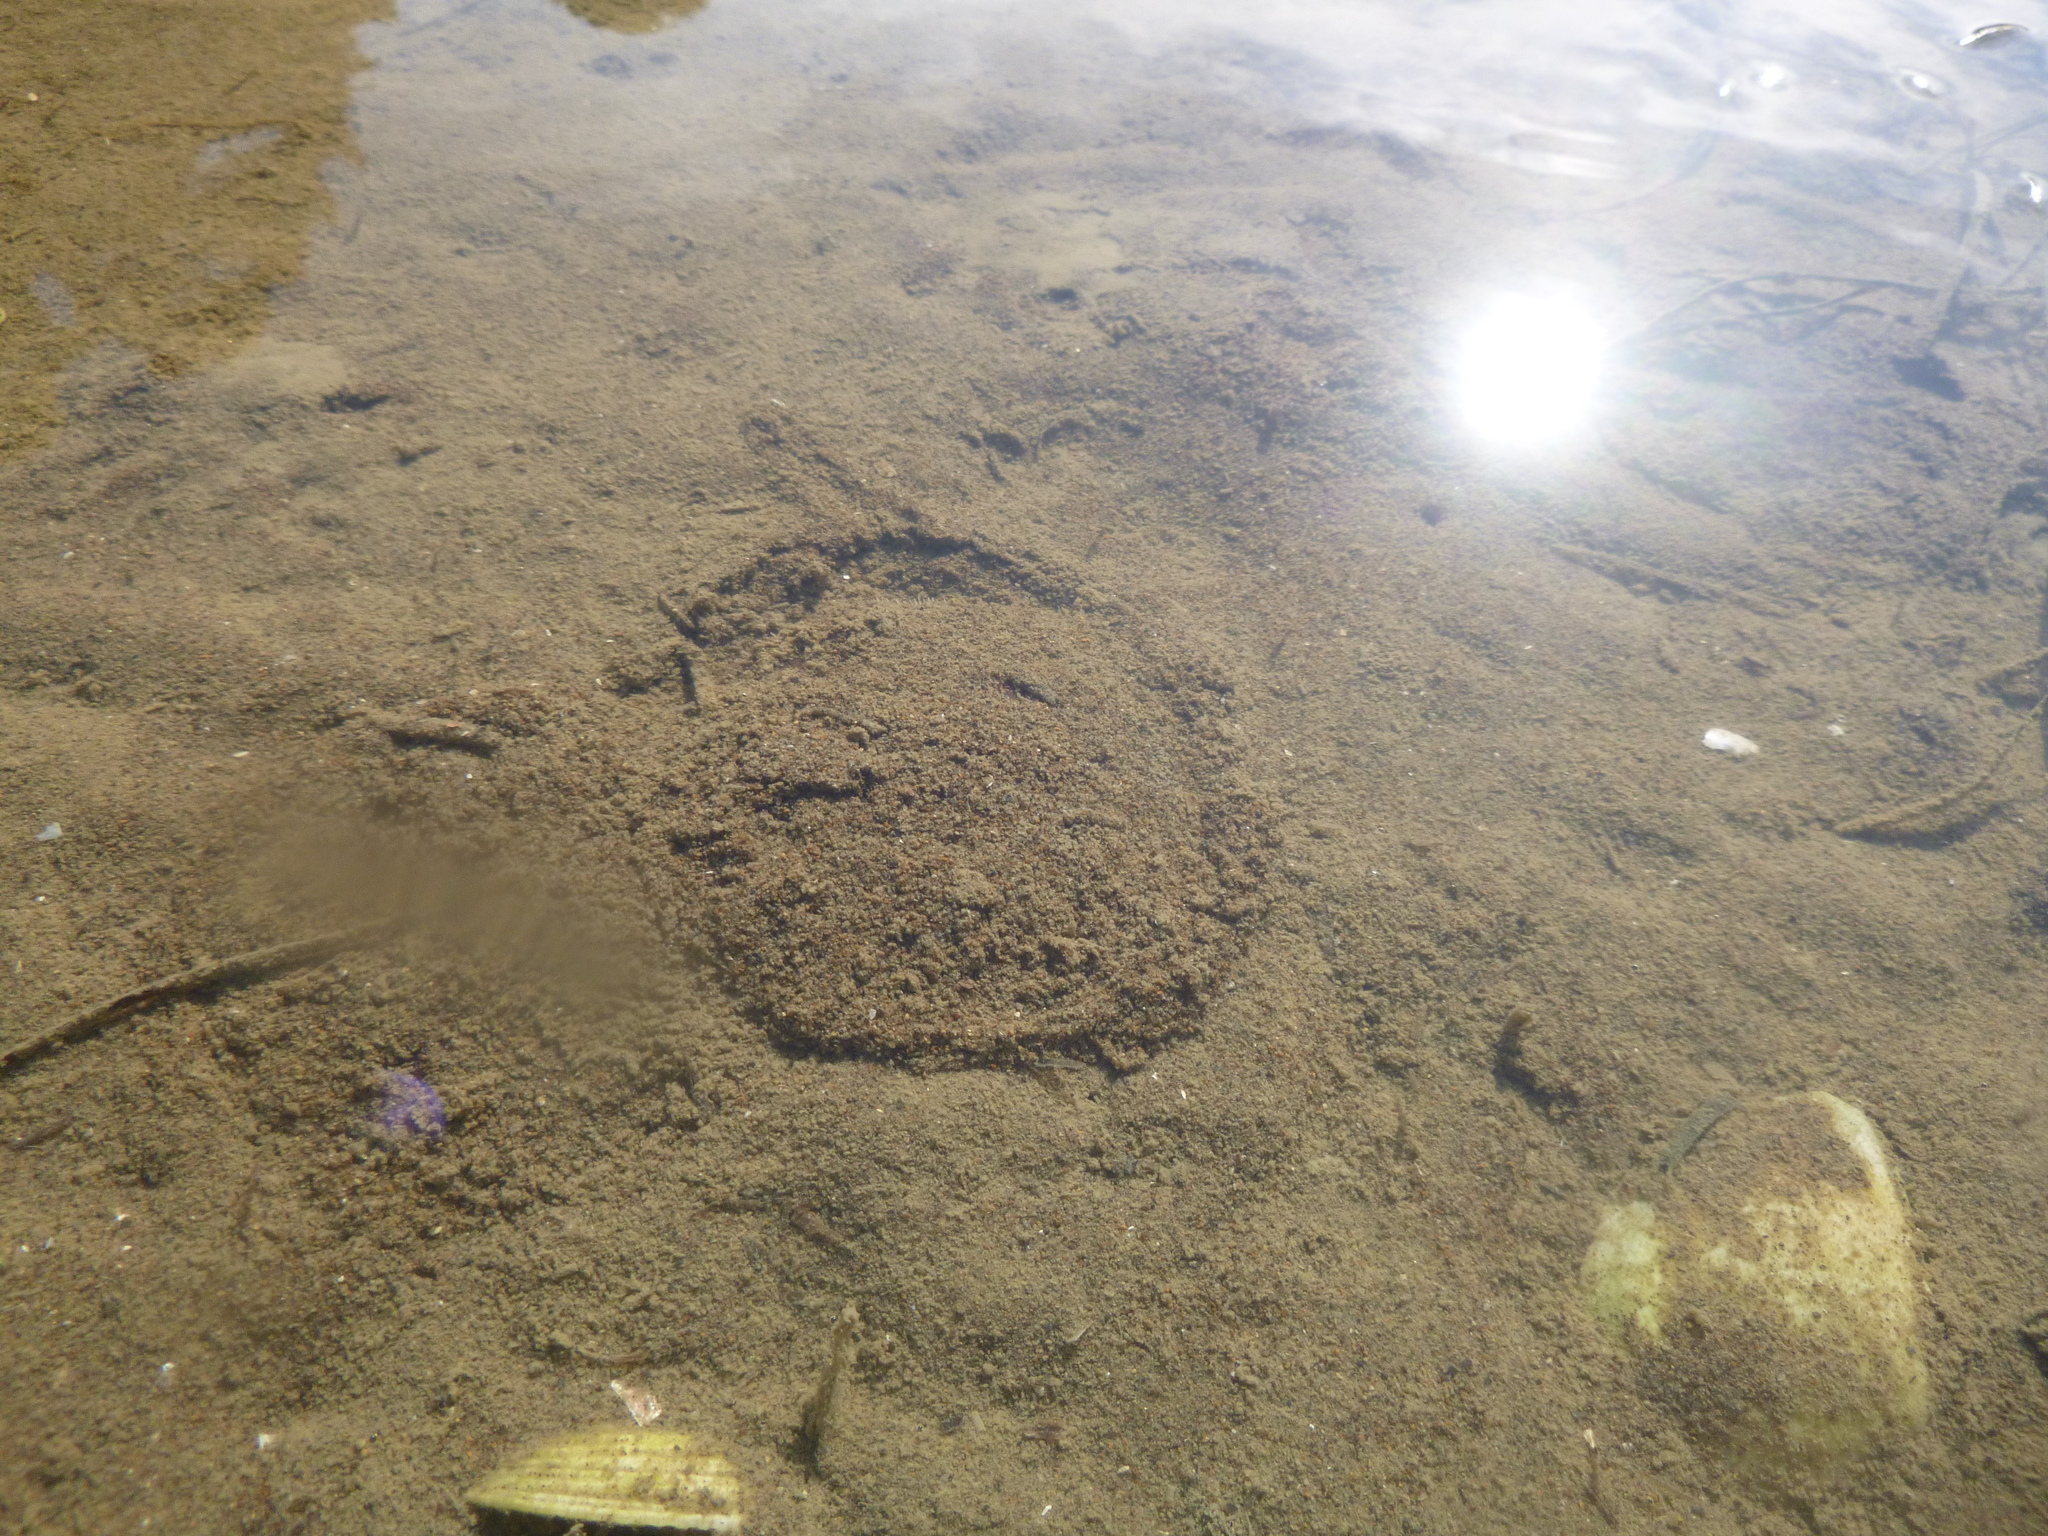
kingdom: Animalia
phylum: Echinodermata
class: Echinoidea
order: Clypeasteroida
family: Clypeasteridae
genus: Fellaster
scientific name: Fellaster zelandiae
